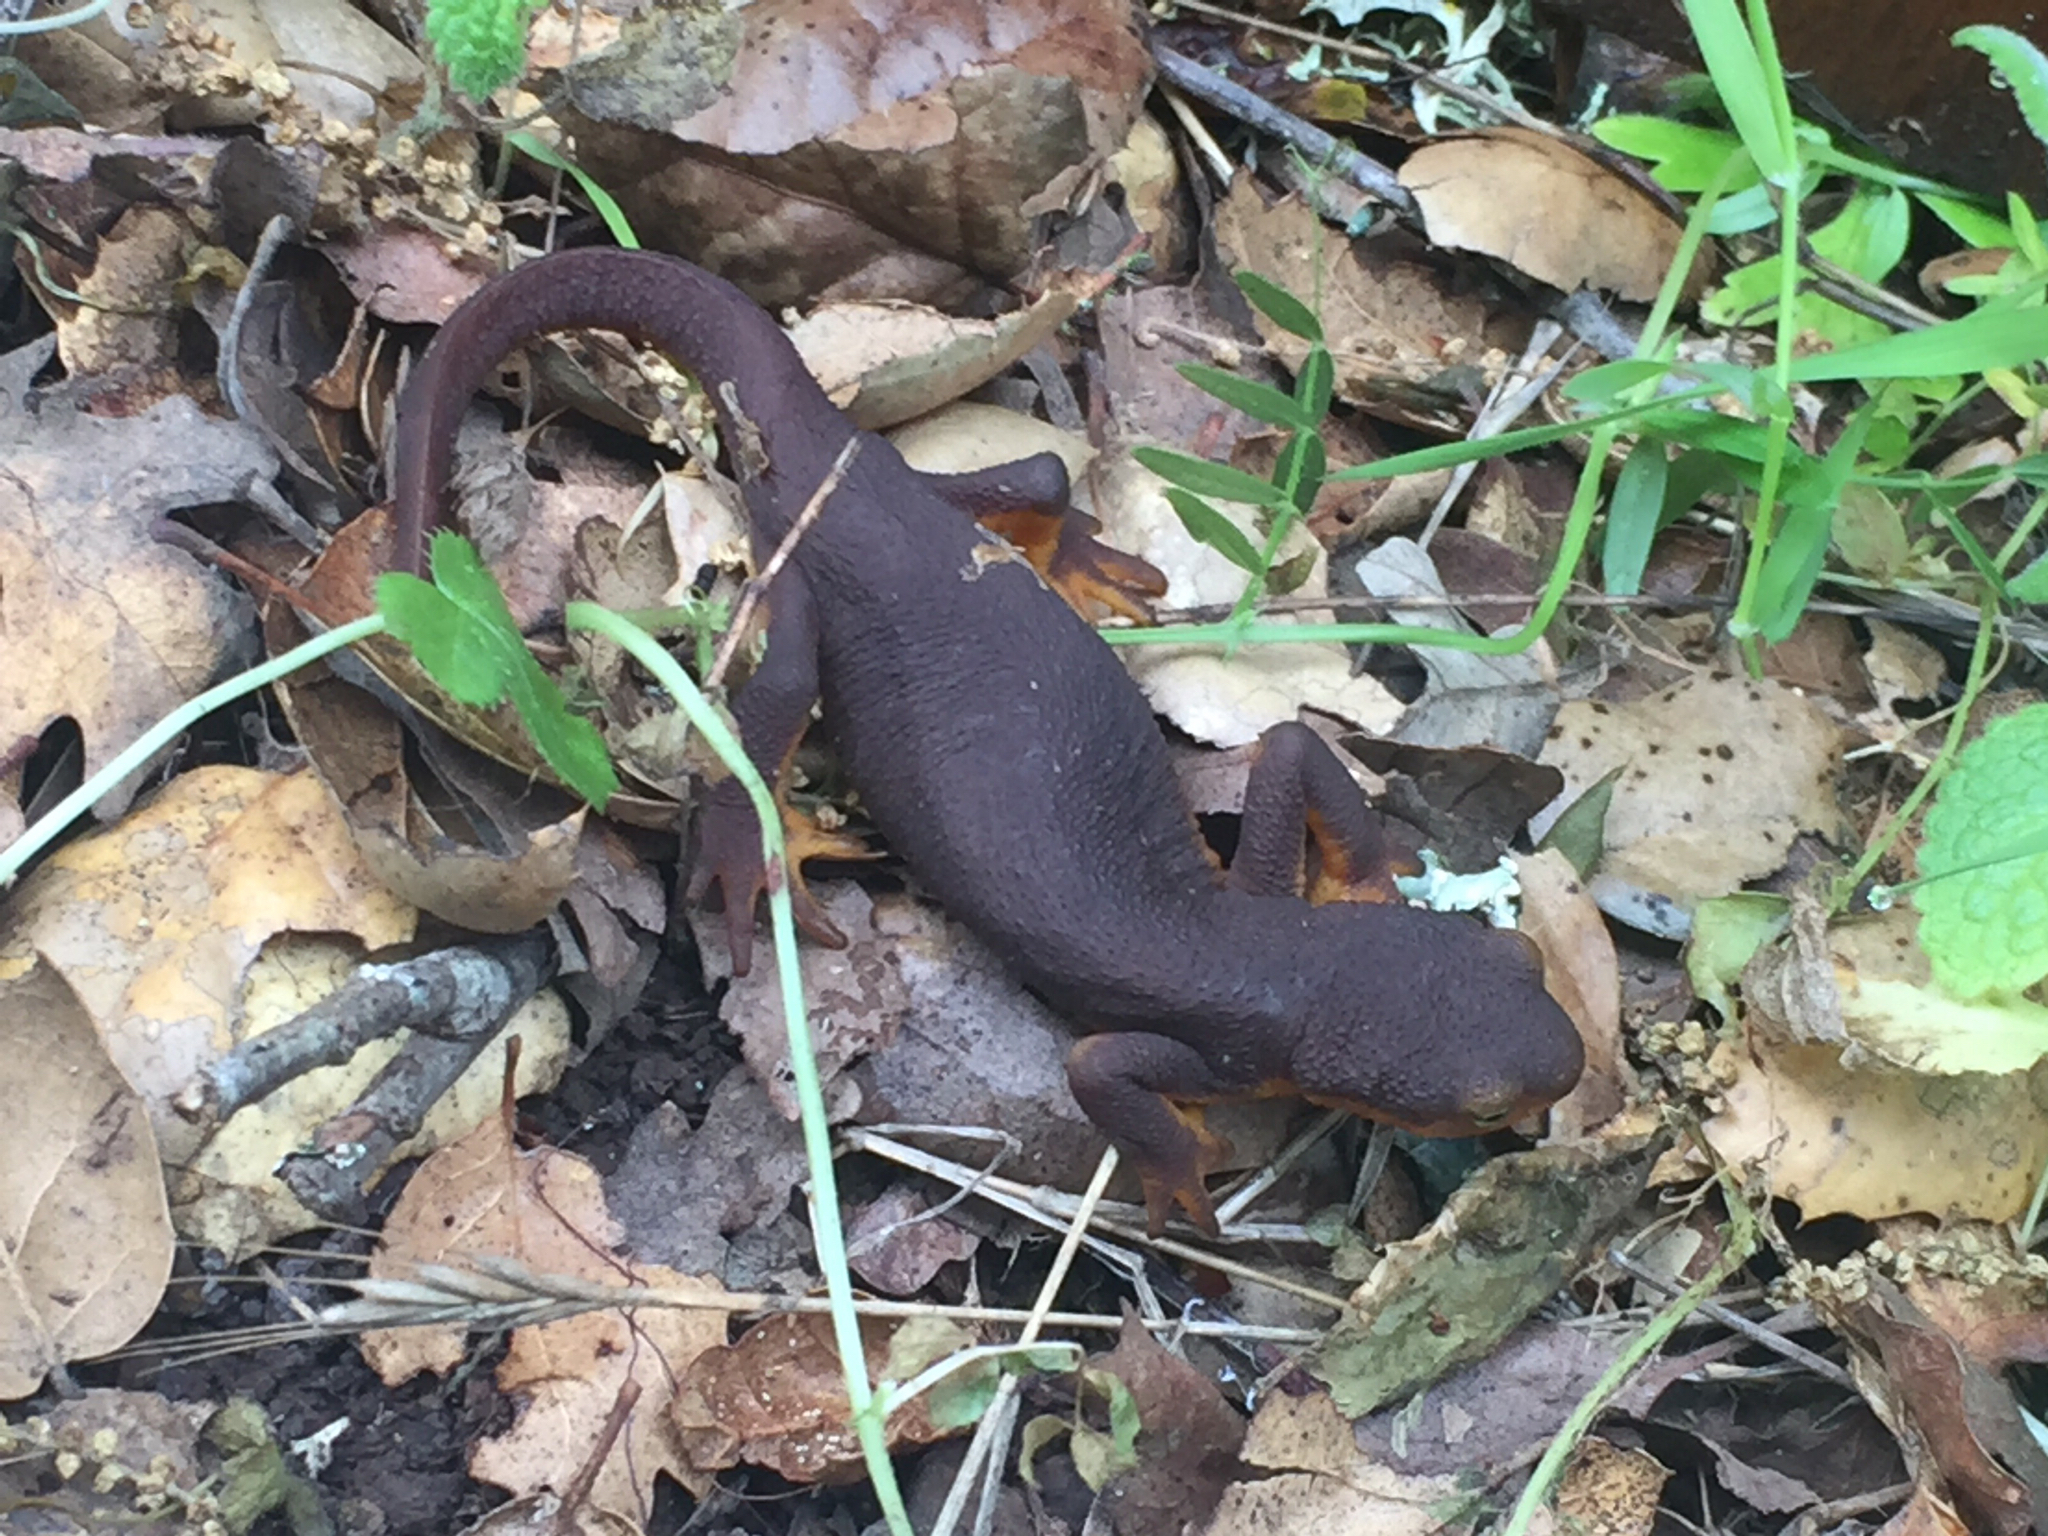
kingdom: Animalia
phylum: Chordata
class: Amphibia
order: Caudata
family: Salamandridae
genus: Taricha
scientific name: Taricha torosa
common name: California newt
